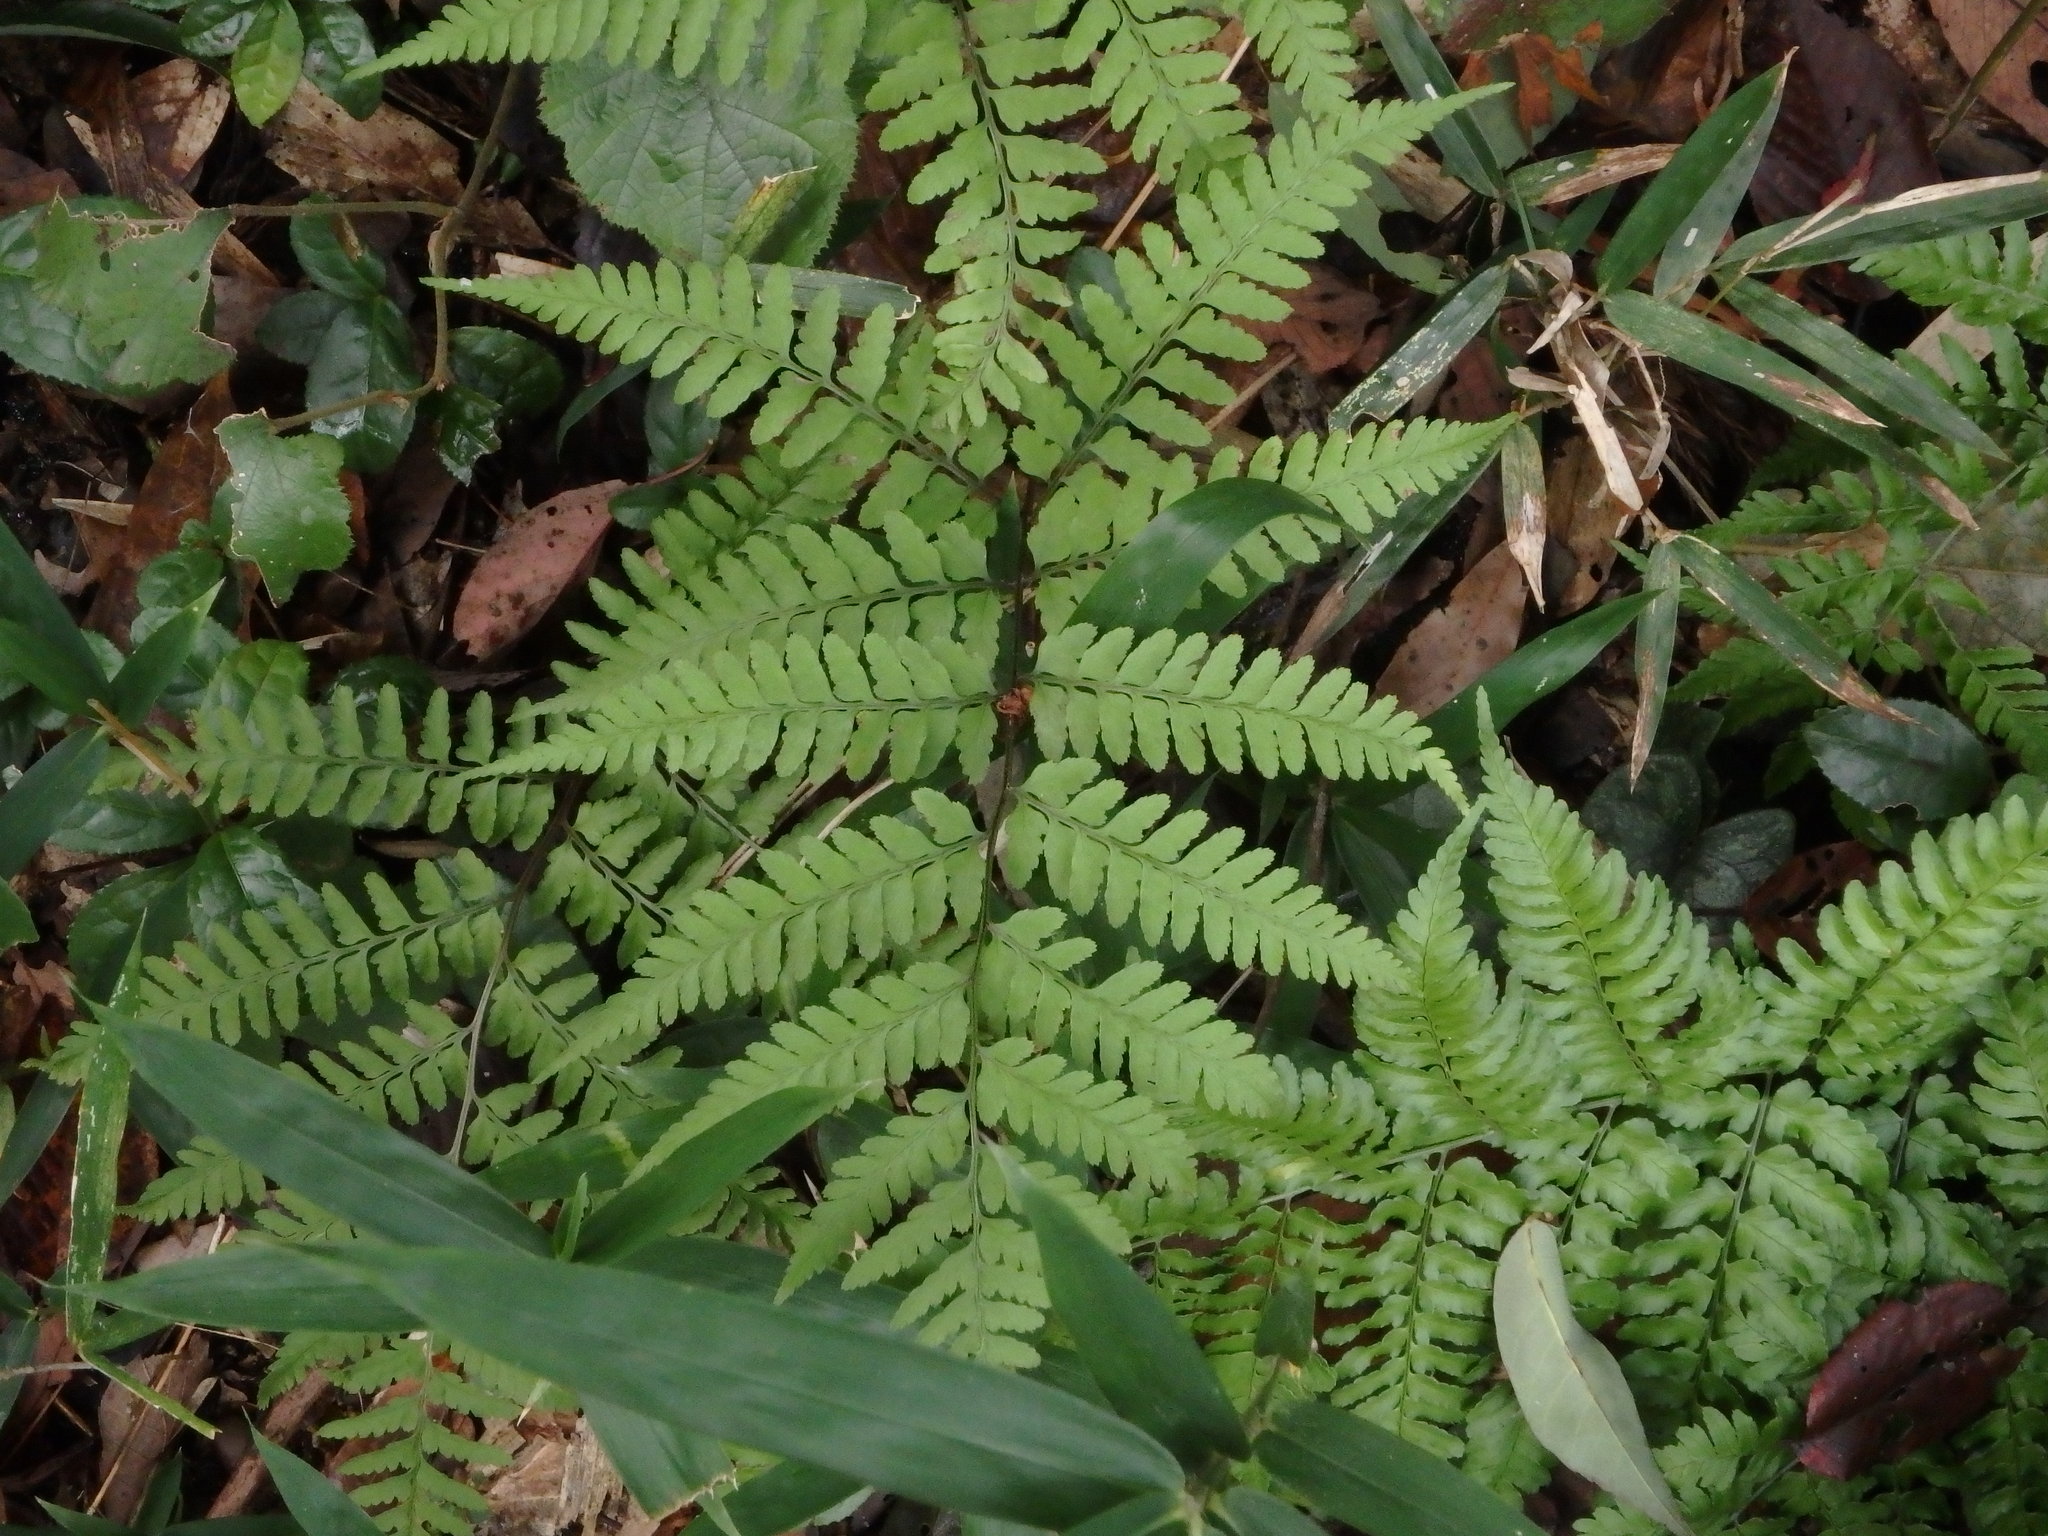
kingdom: Plantae
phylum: Tracheophyta
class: Polypodiopsida
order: Polypodiales
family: Athyriaceae
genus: Athyrium
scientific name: Athyrium wardii
